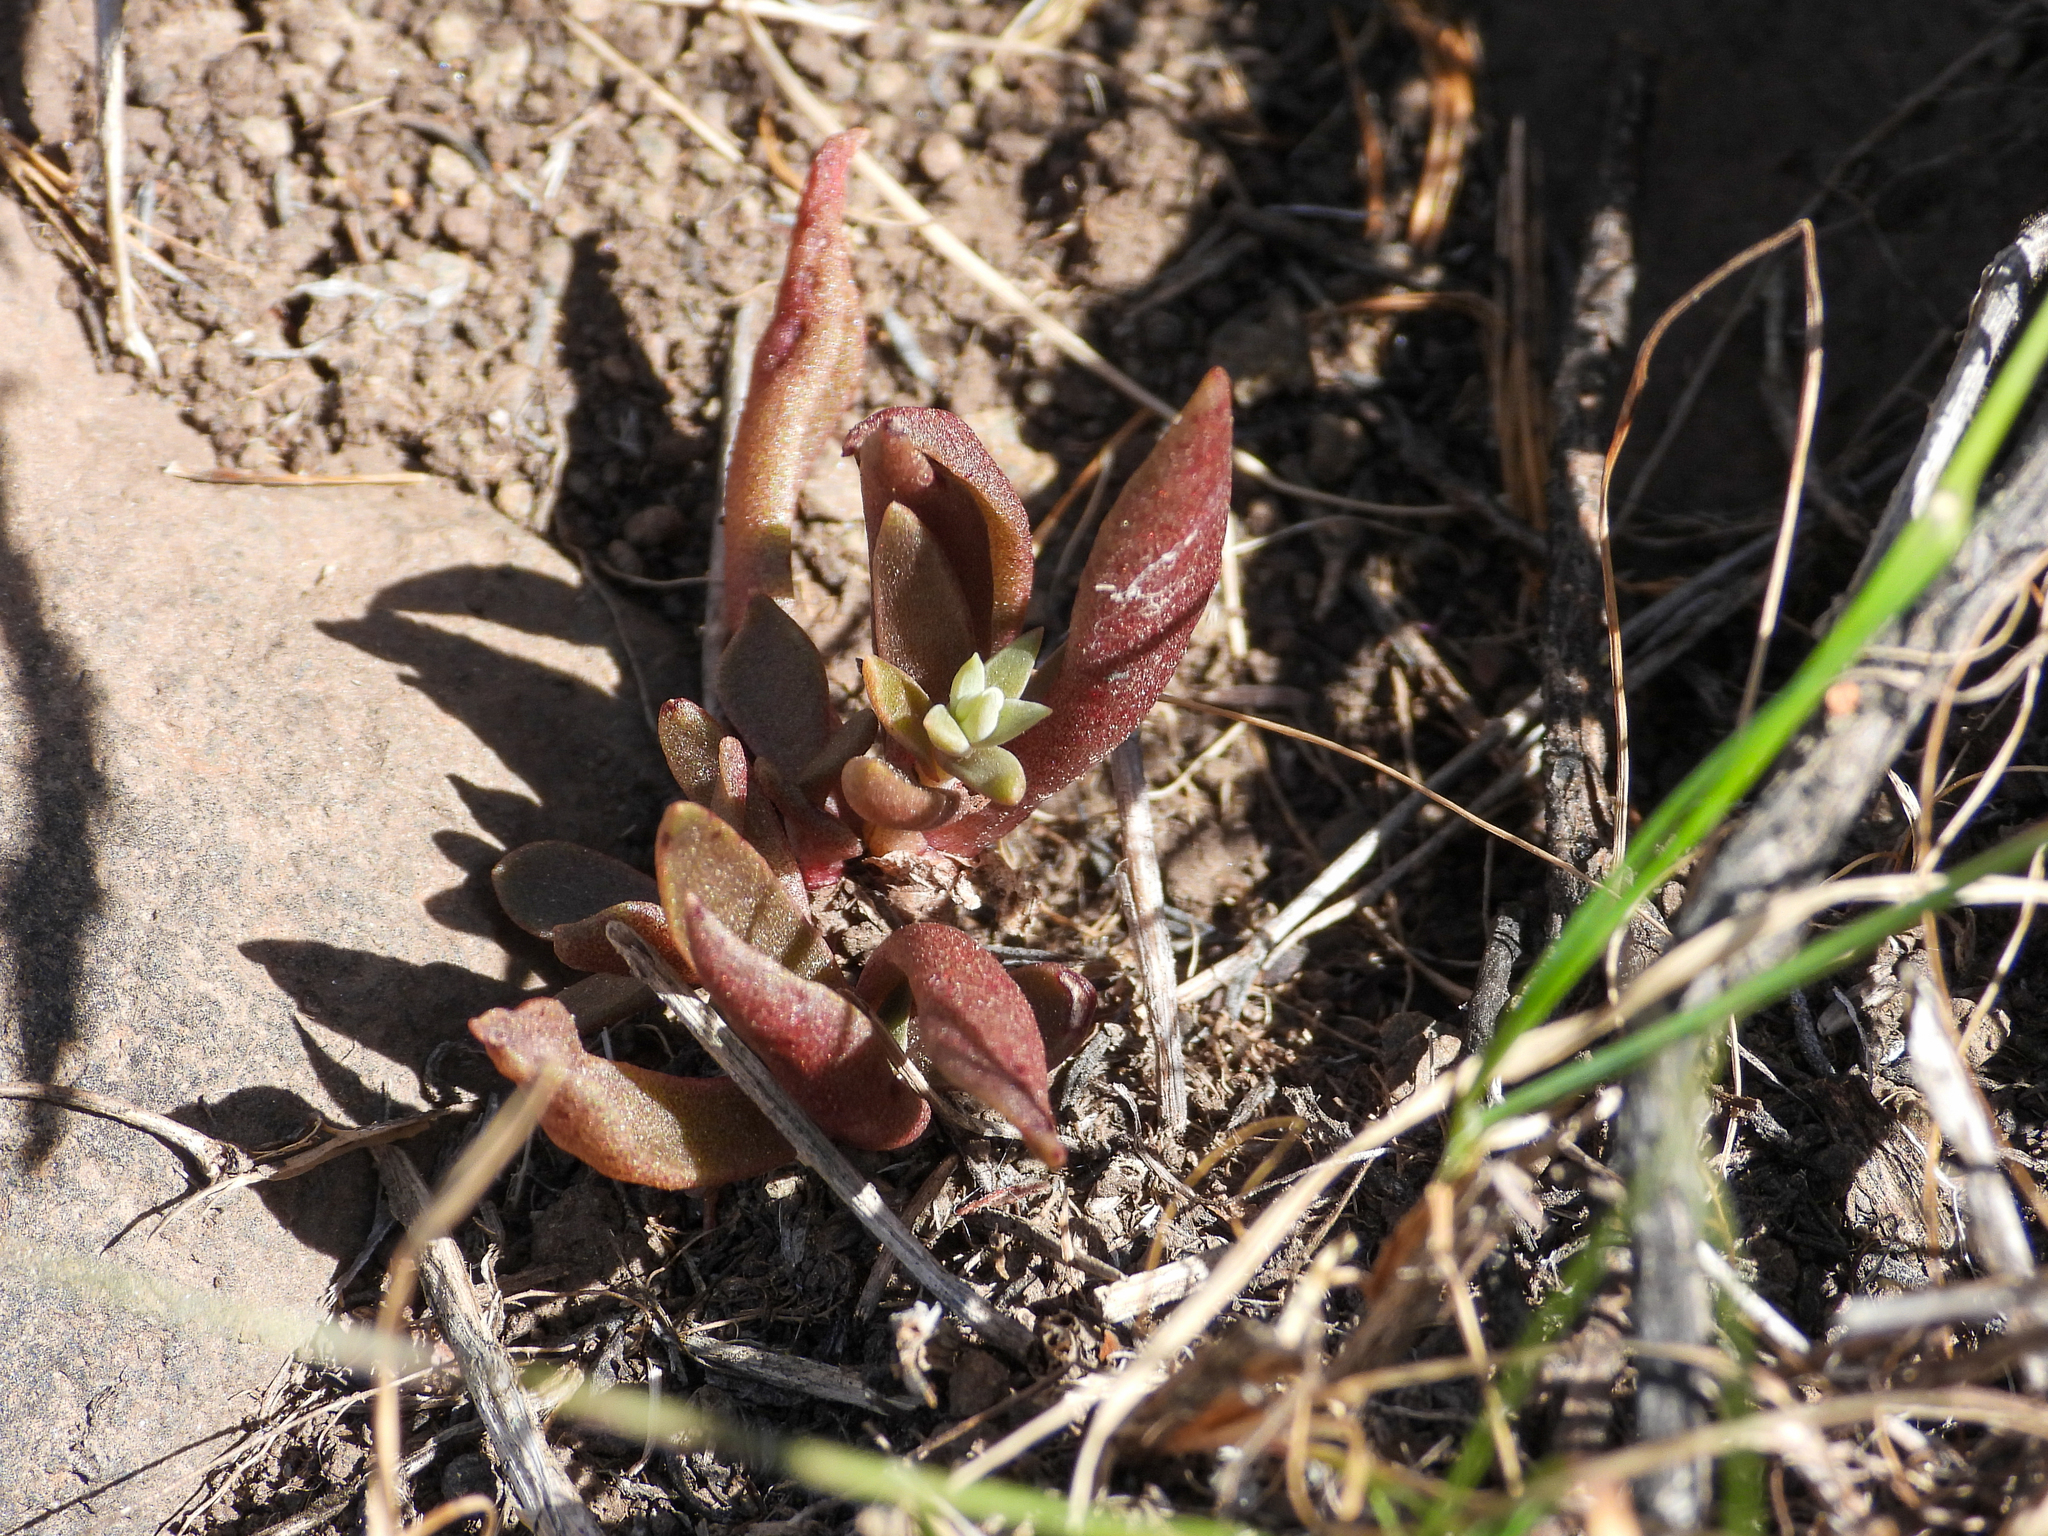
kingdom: Plantae
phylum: Tracheophyta
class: Magnoliopsida
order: Saxifragales
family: Crassulaceae
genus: Dudleya
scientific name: Dudleya parva
